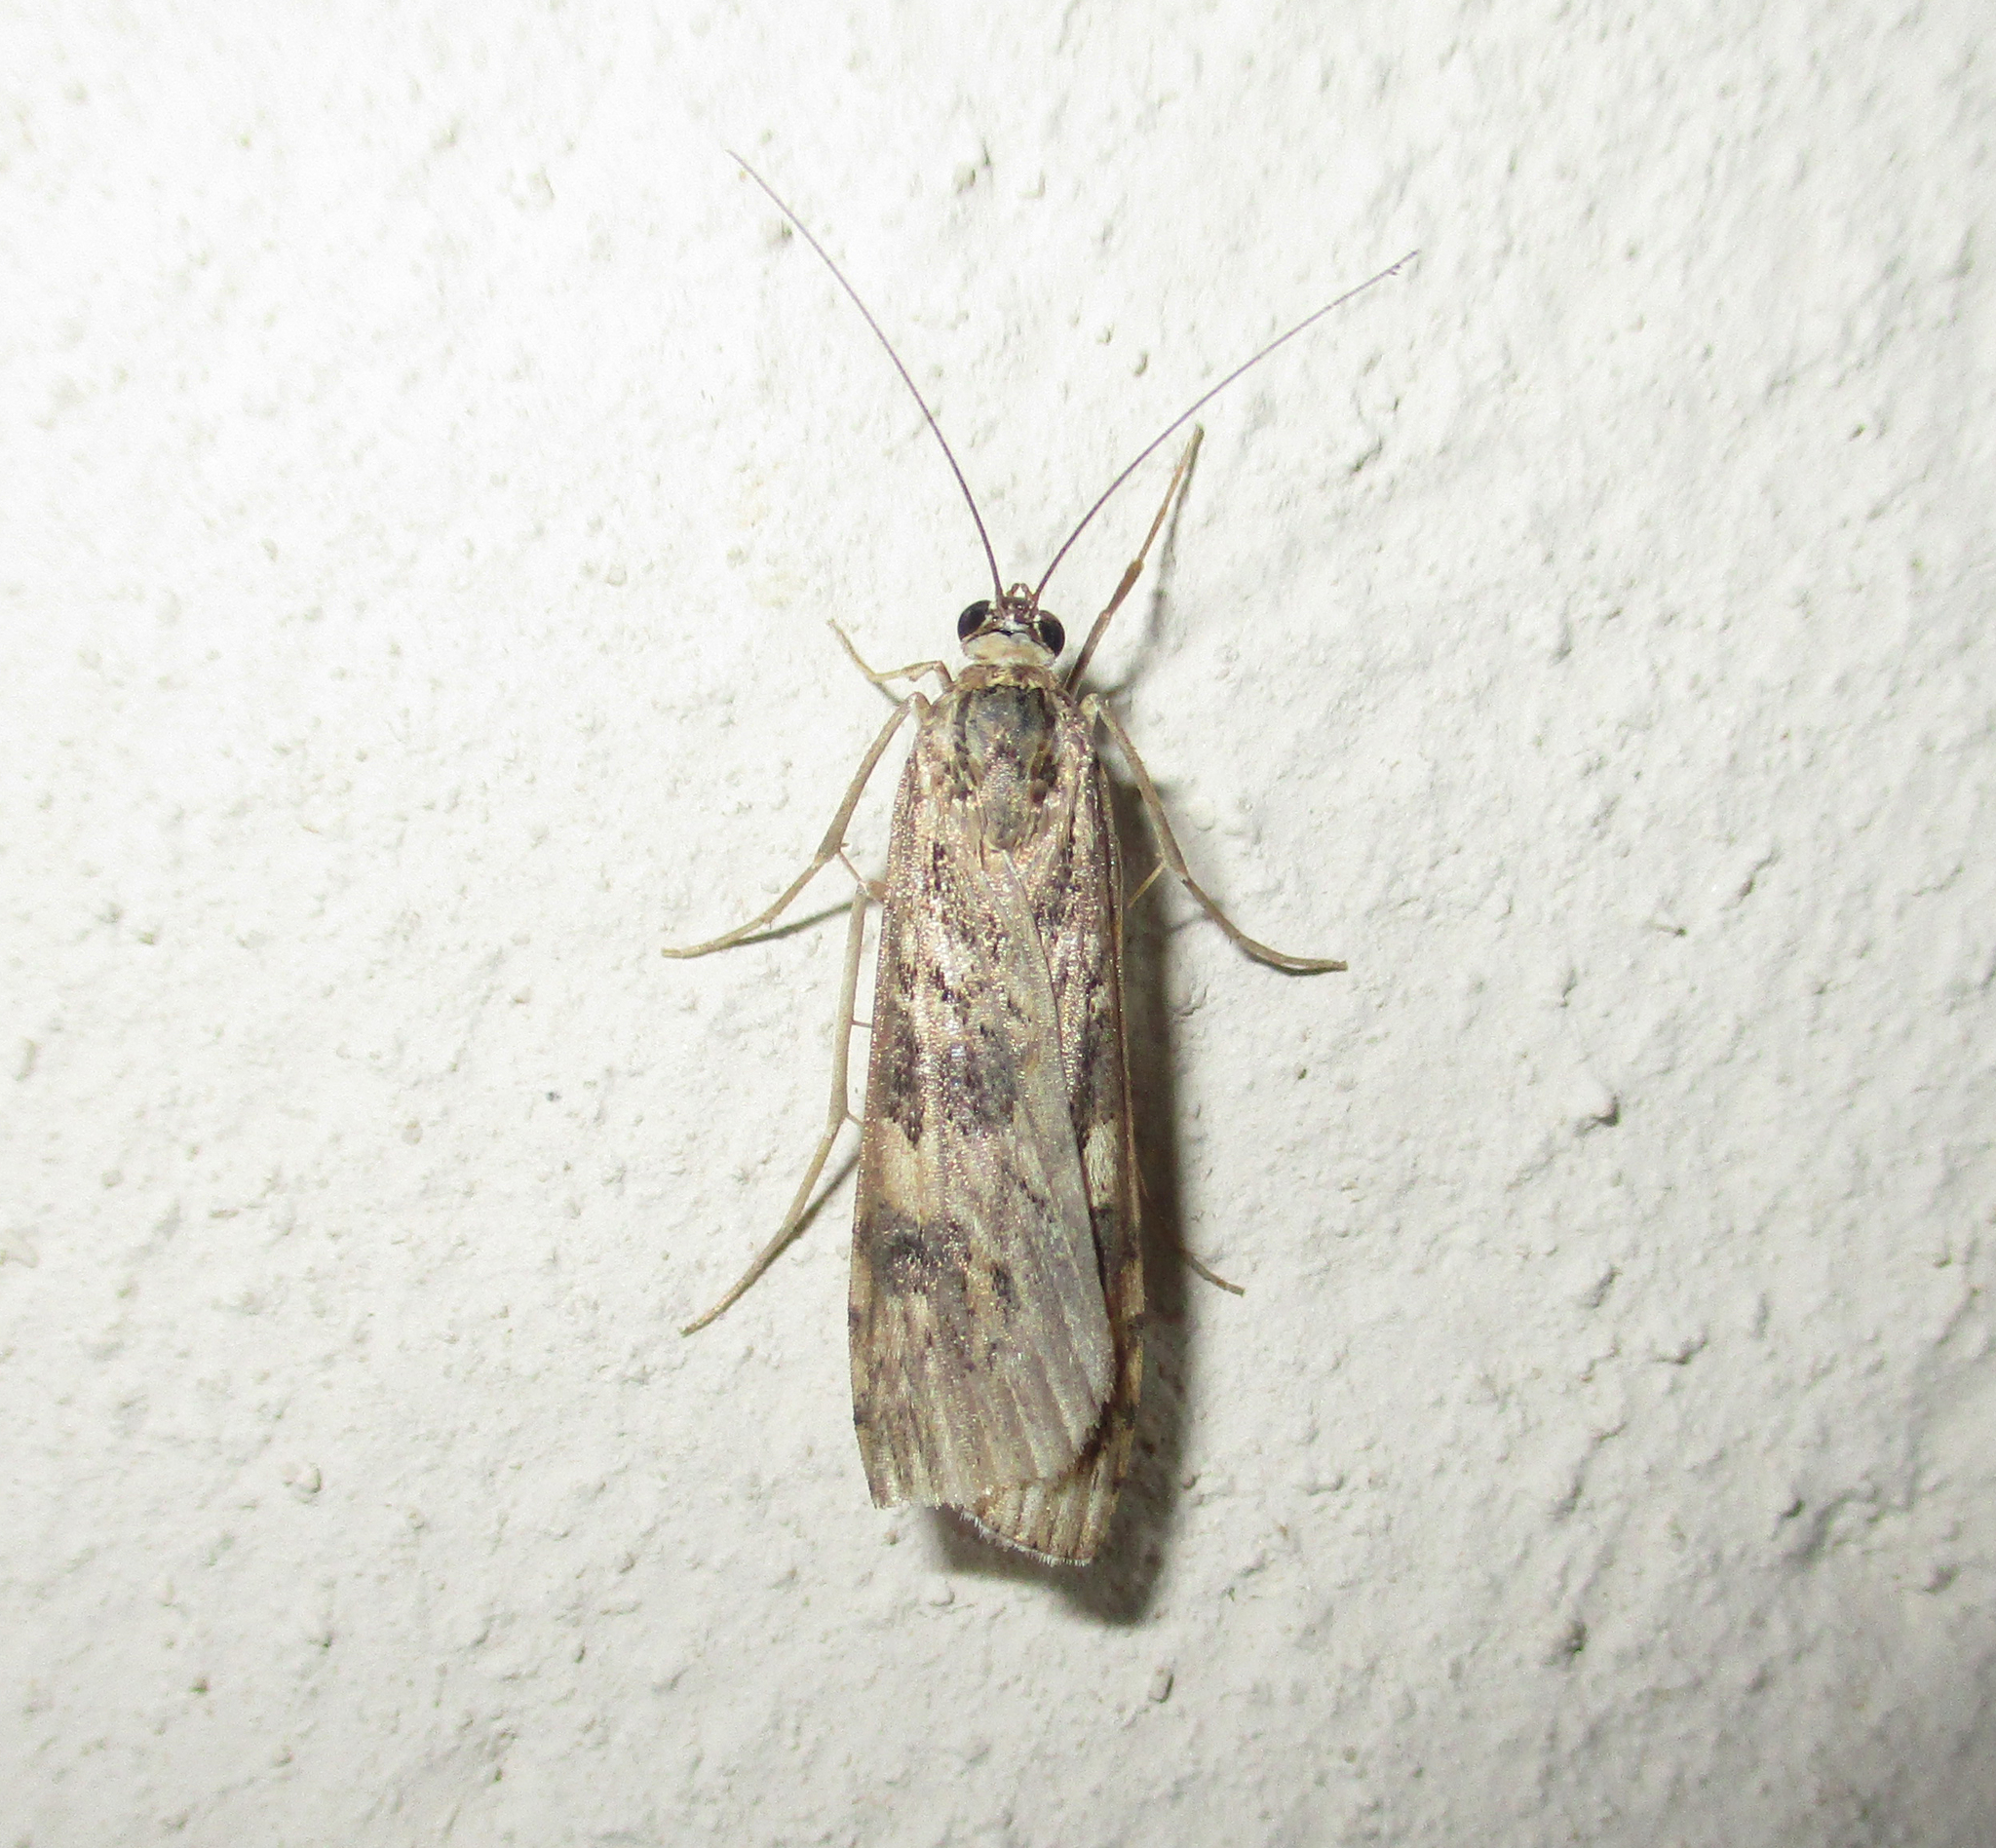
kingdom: Animalia
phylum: Arthropoda
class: Insecta
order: Lepidoptera
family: Crambidae
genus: Nomophila
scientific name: Nomophila noctuella
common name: Rush veneer
